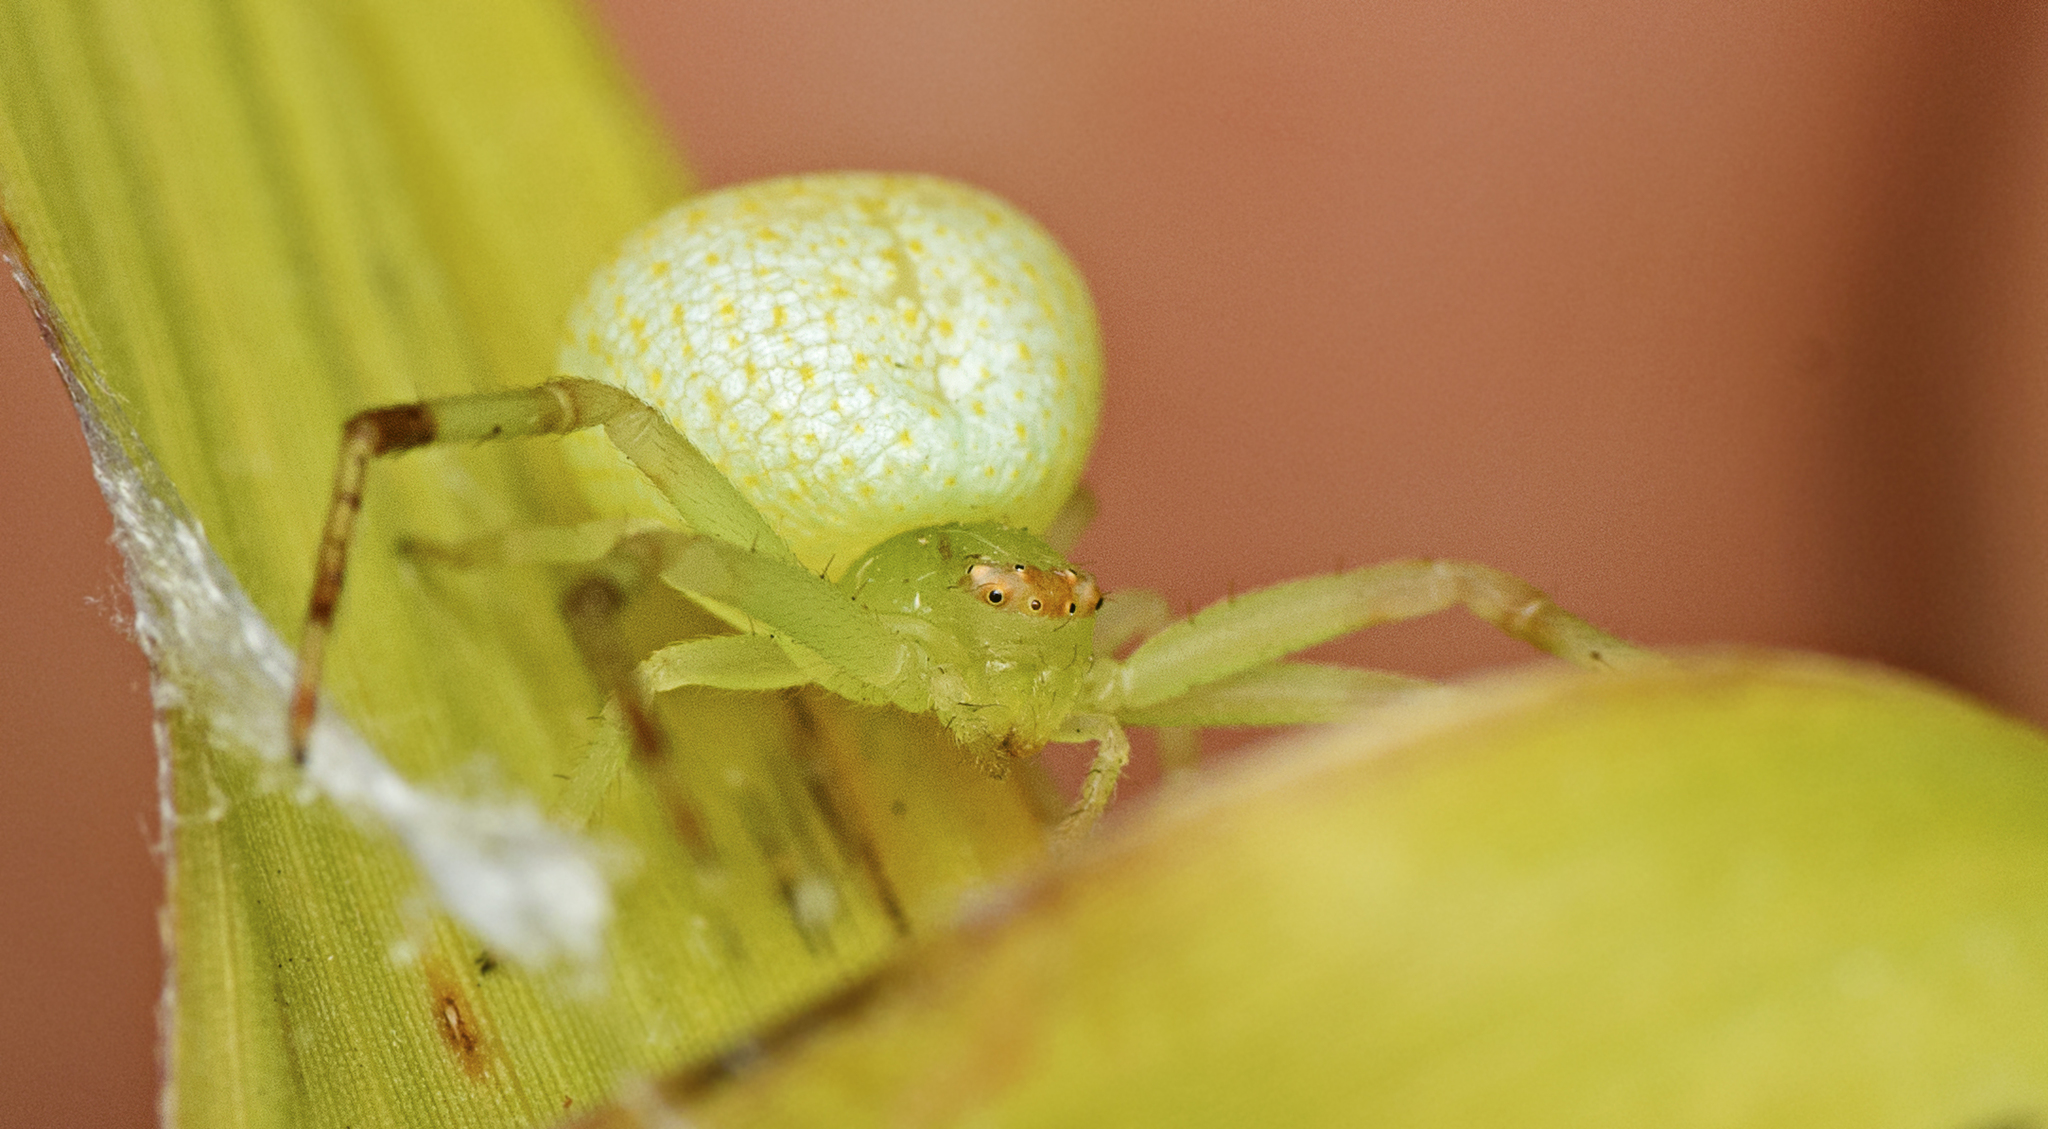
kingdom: Animalia
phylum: Arthropoda
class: Arachnida
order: Araneae
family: Thomisidae
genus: Boomerangiana
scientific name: Boomerangiana dimidiata
